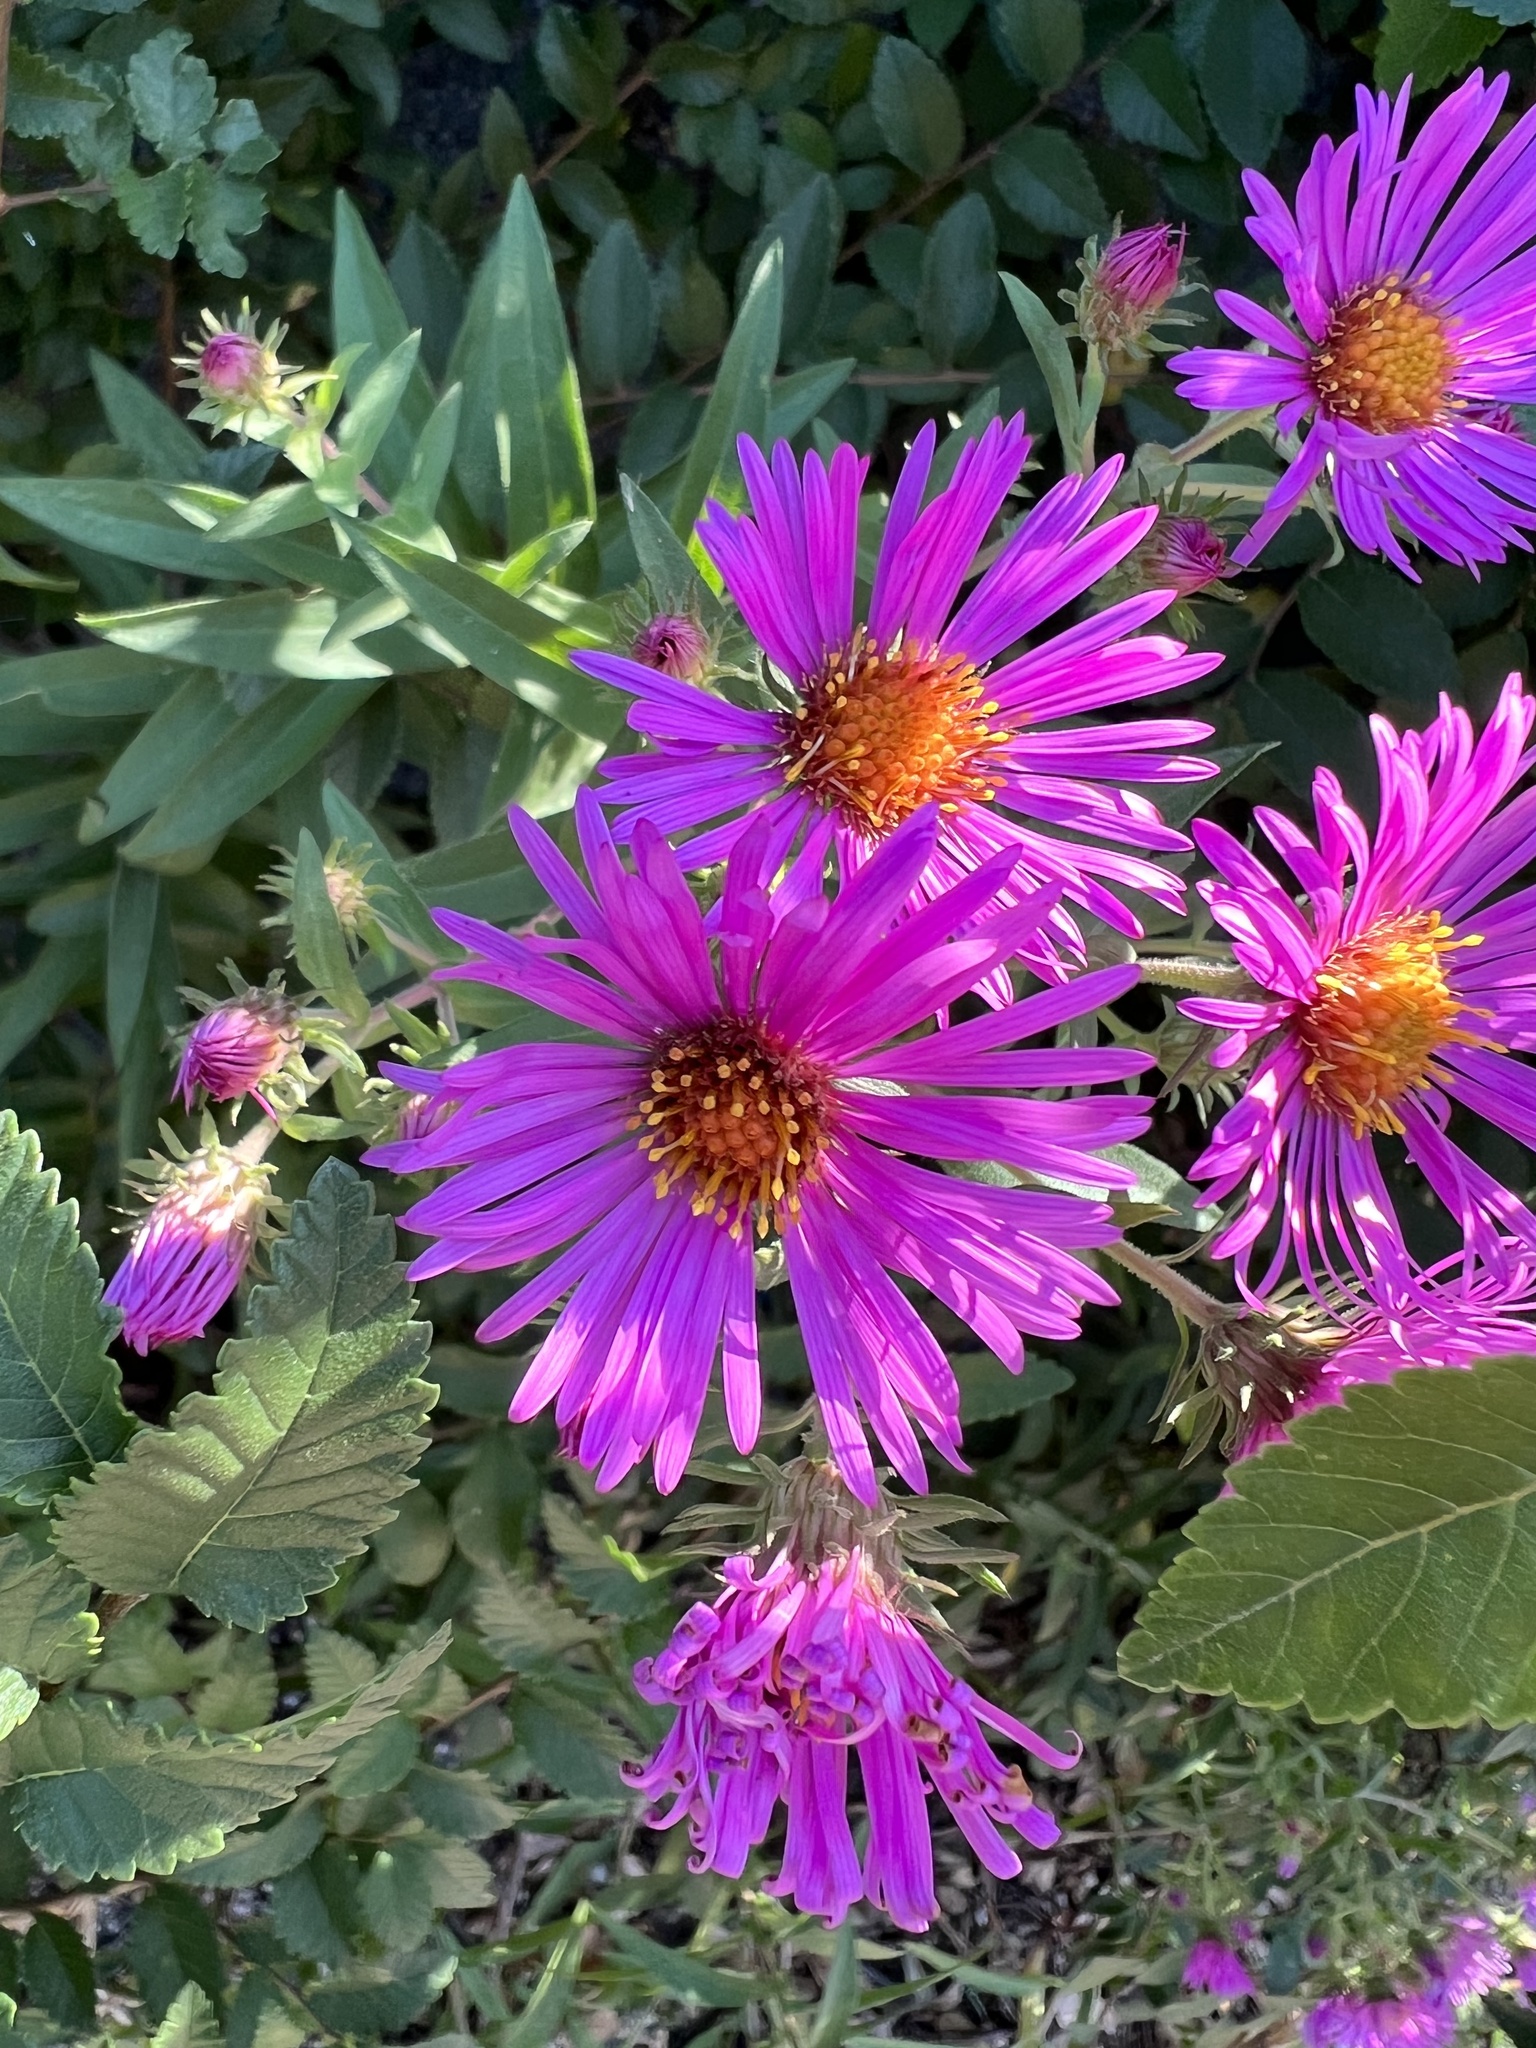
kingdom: Plantae
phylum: Tracheophyta
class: Magnoliopsida
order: Asterales
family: Asteraceae
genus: Symphyotrichum
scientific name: Symphyotrichum novae-angliae
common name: Michaelmas daisy
